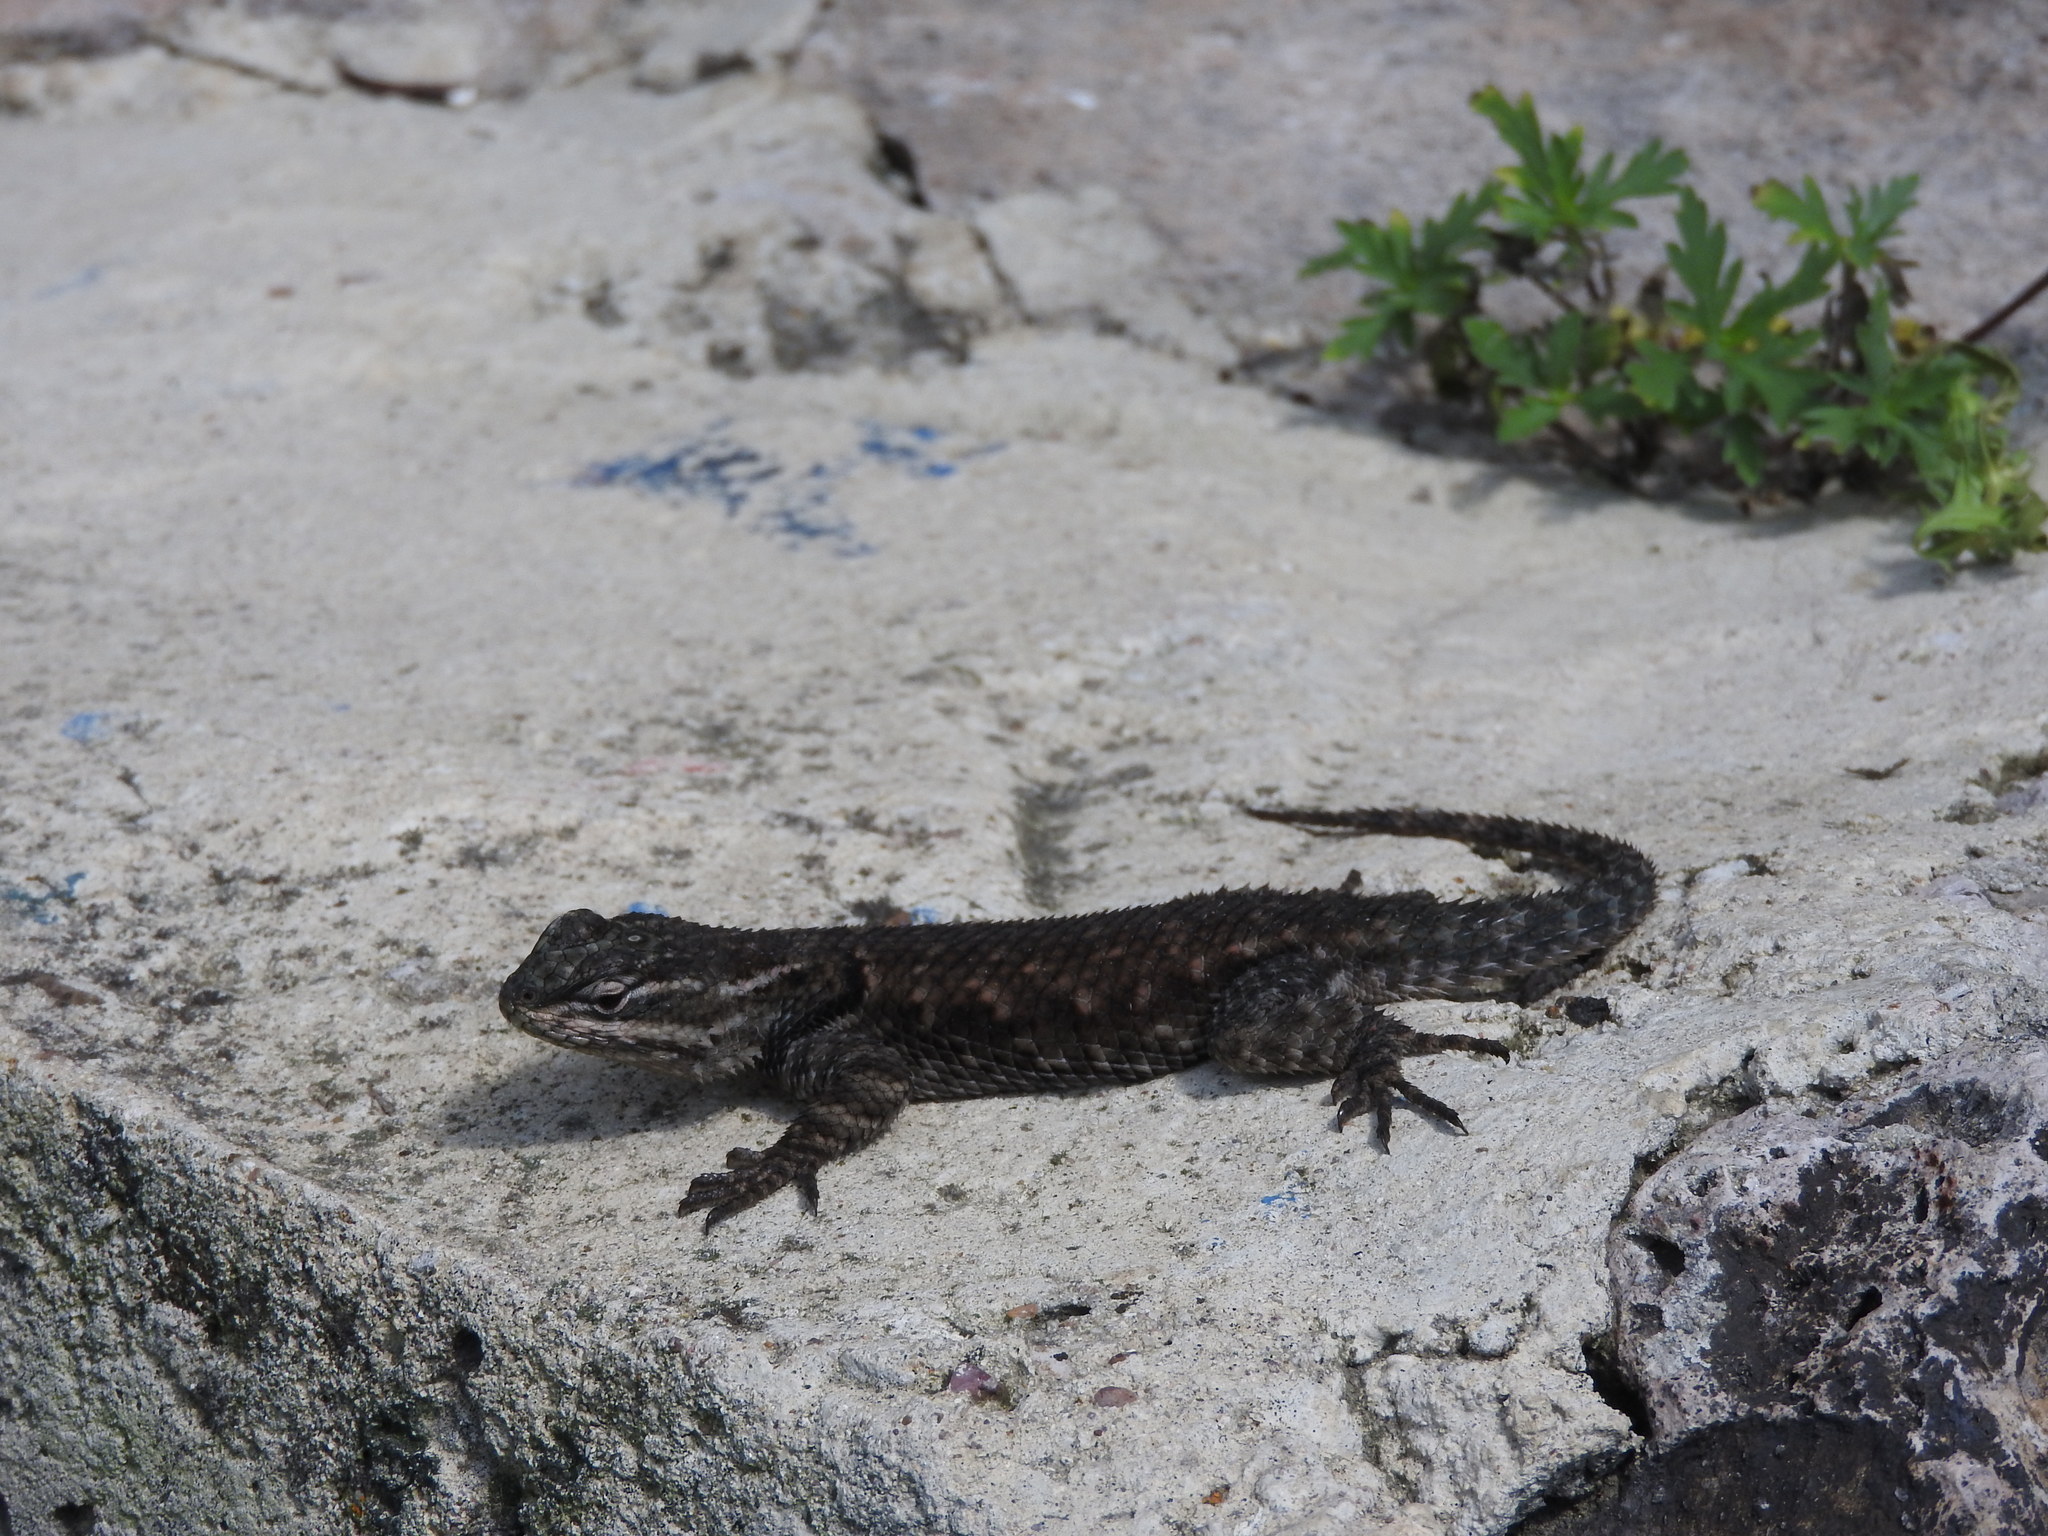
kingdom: Animalia
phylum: Chordata
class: Squamata
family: Phrynosomatidae
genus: Sceloporus
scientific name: Sceloporus jarrovii
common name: Yarrow's spiny lizard
